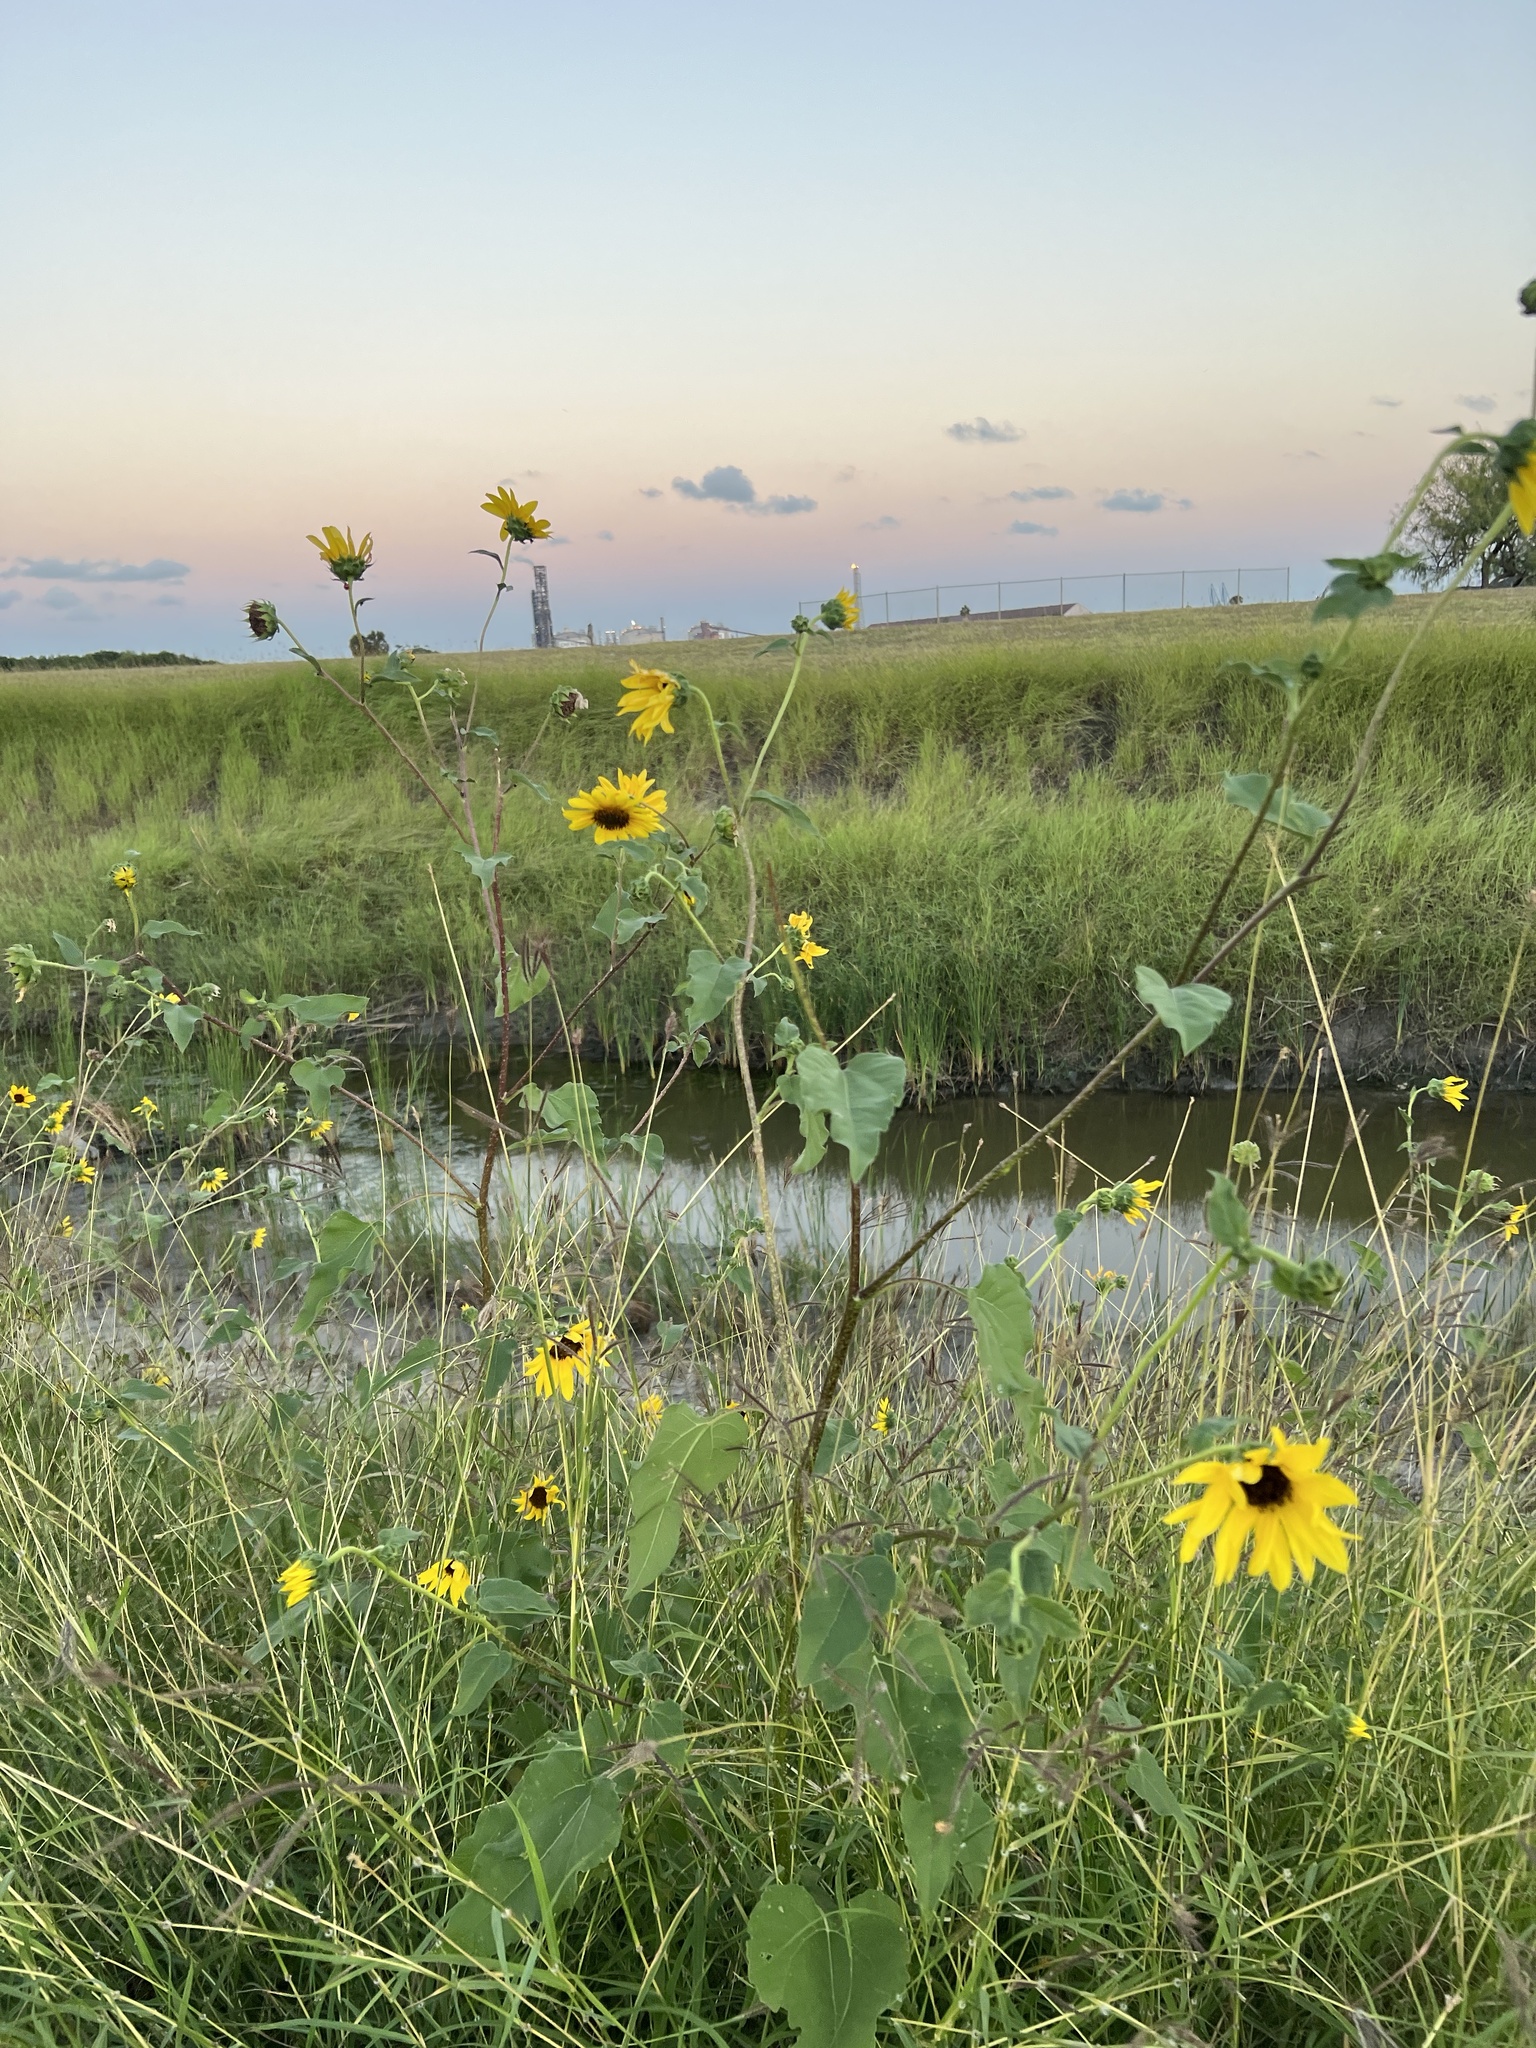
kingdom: Plantae
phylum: Tracheophyta
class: Magnoliopsida
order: Asterales
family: Asteraceae
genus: Helianthus
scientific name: Helianthus annuus
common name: Sunflower
